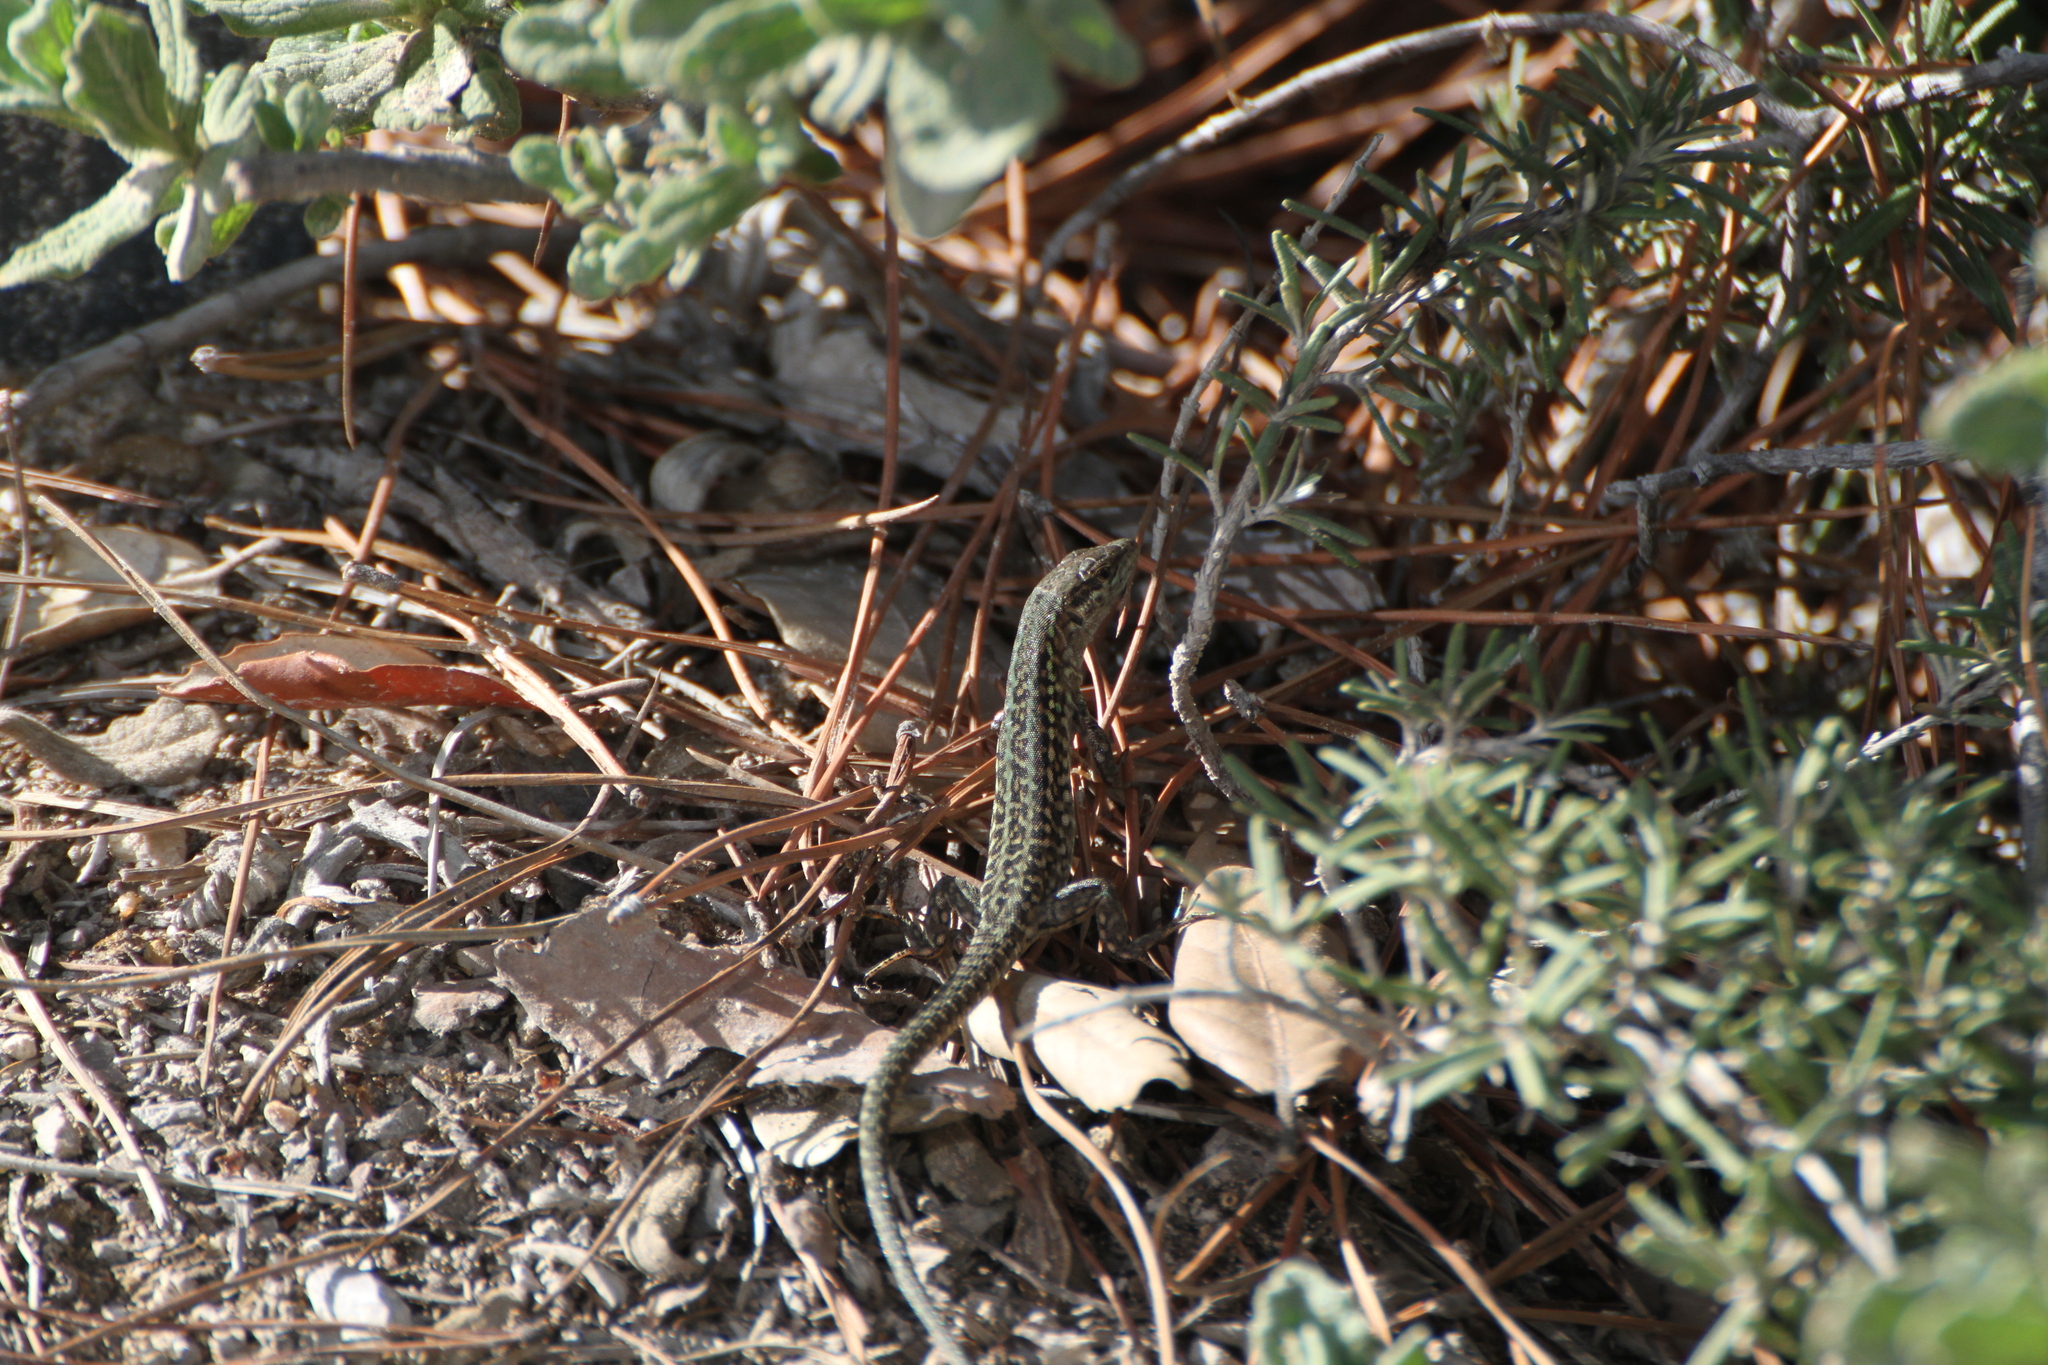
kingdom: Animalia
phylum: Chordata
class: Squamata
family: Lacertidae
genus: Podarcis
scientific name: Podarcis siculus
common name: Italian wall lizard
